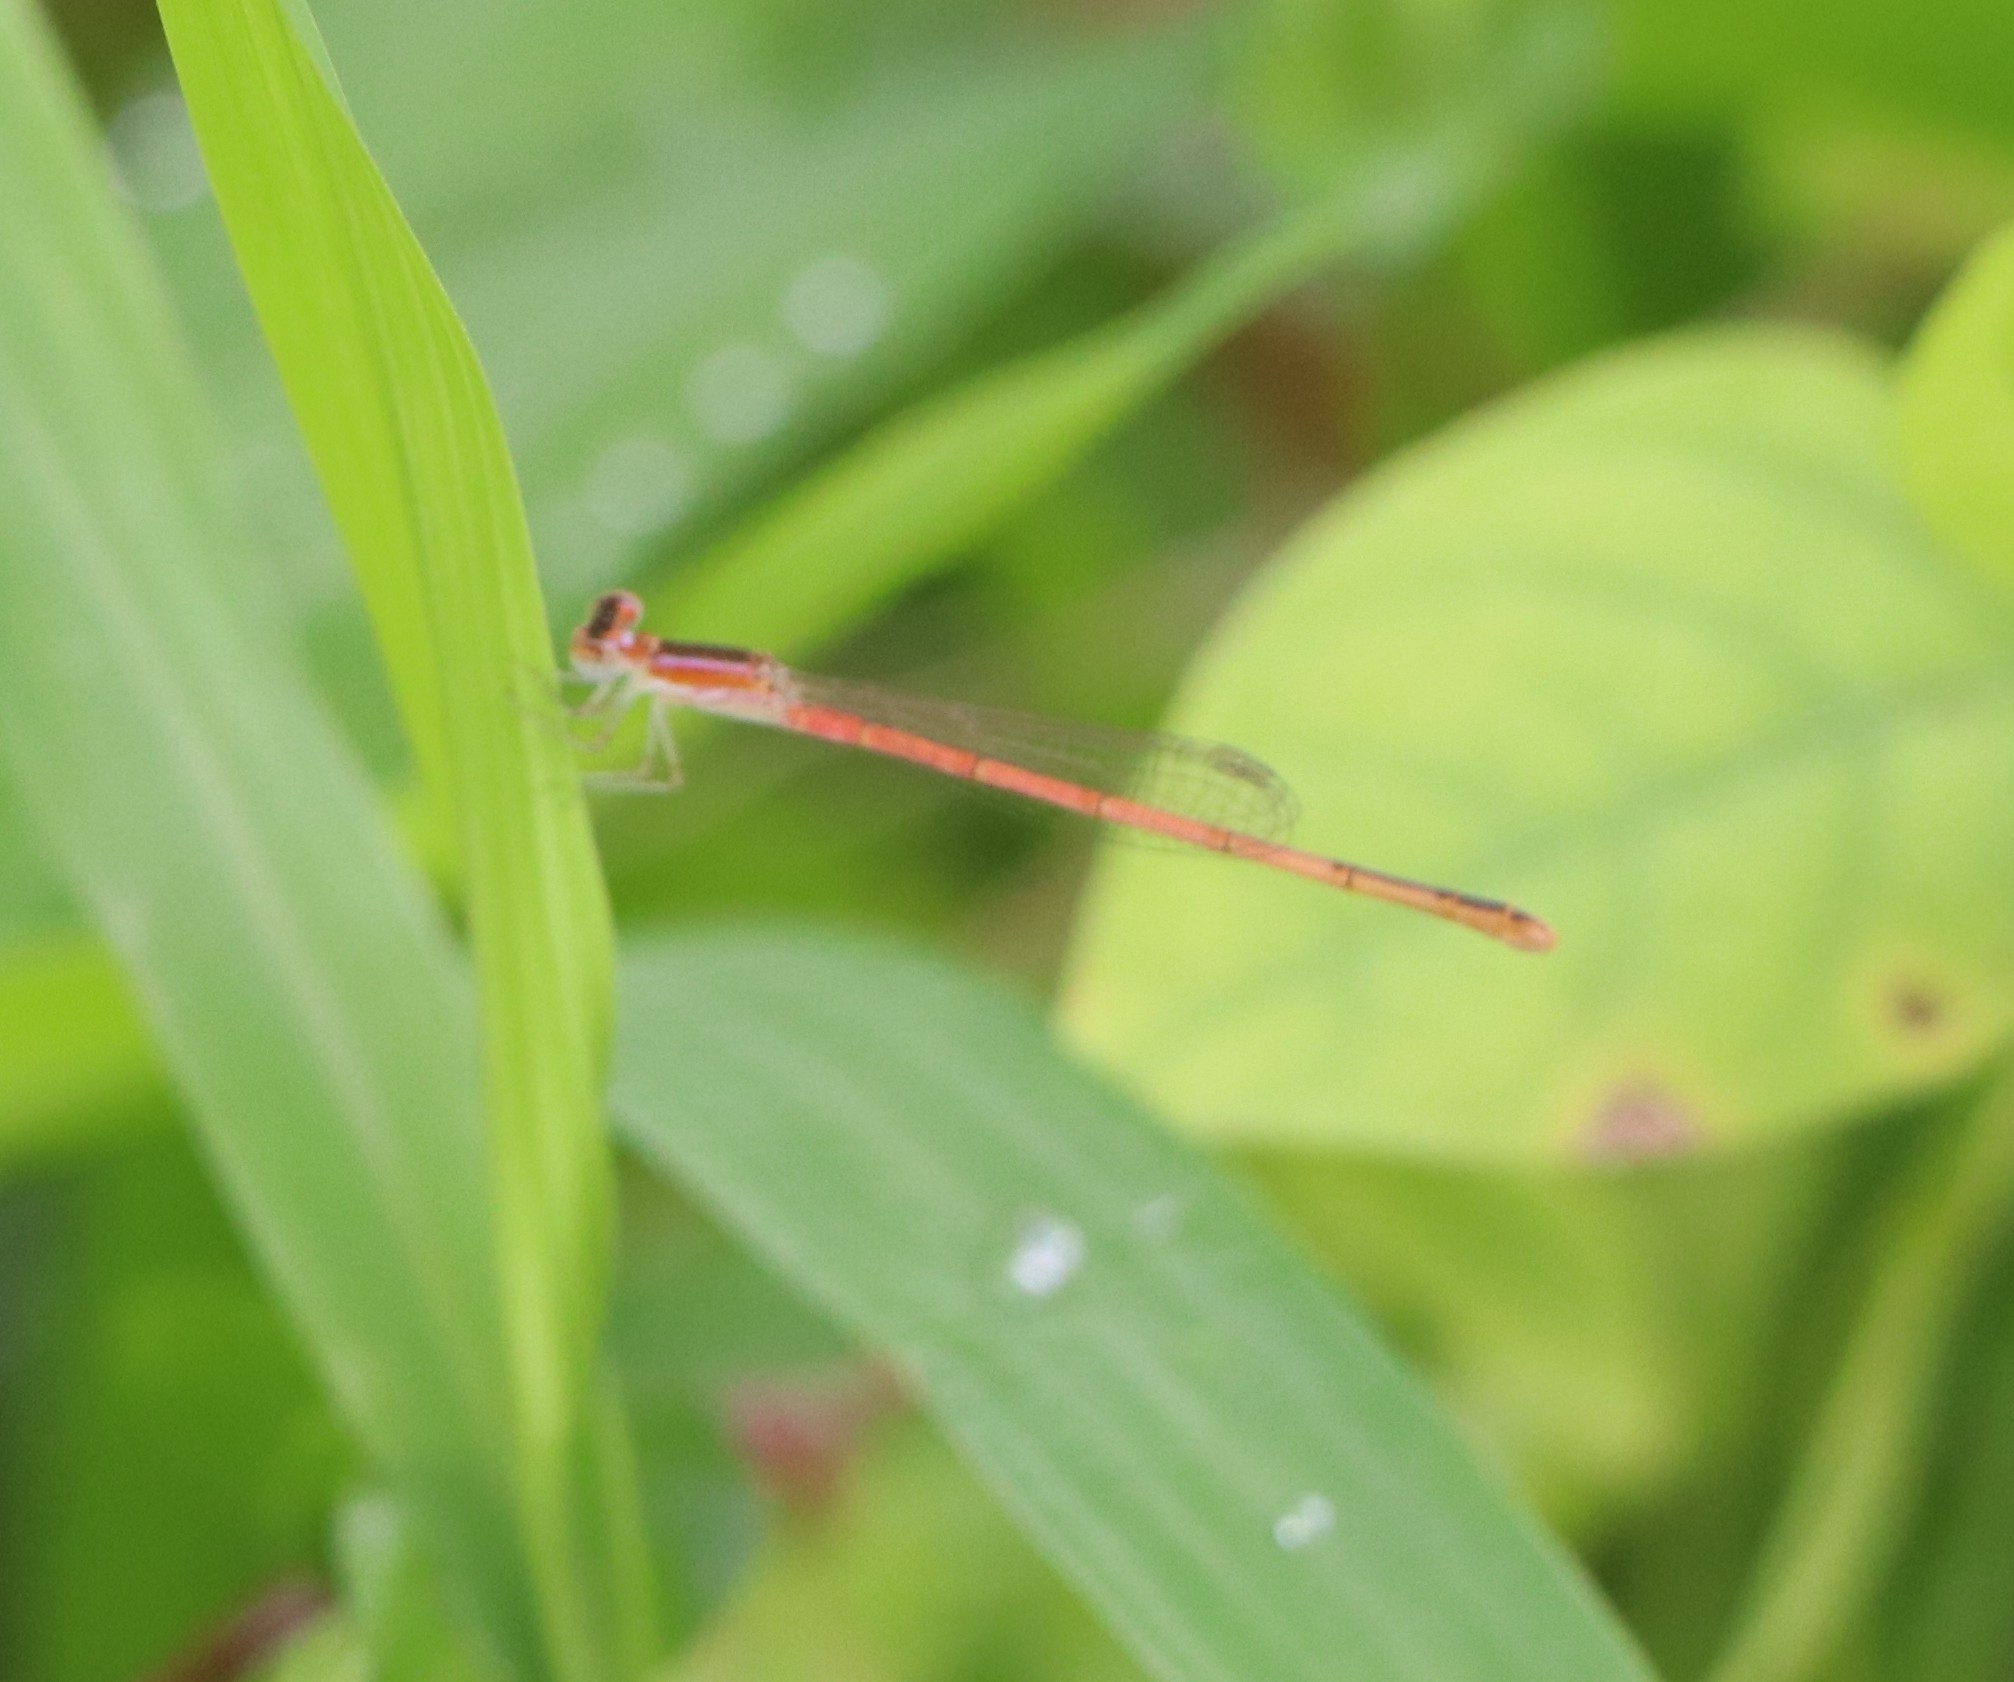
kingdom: Animalia
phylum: Arthropoda
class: Insecta
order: Odonata
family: Coenagrionidae
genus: Agriocnemis
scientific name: Agriocnemis pygmaea
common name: Pygmy wisp
